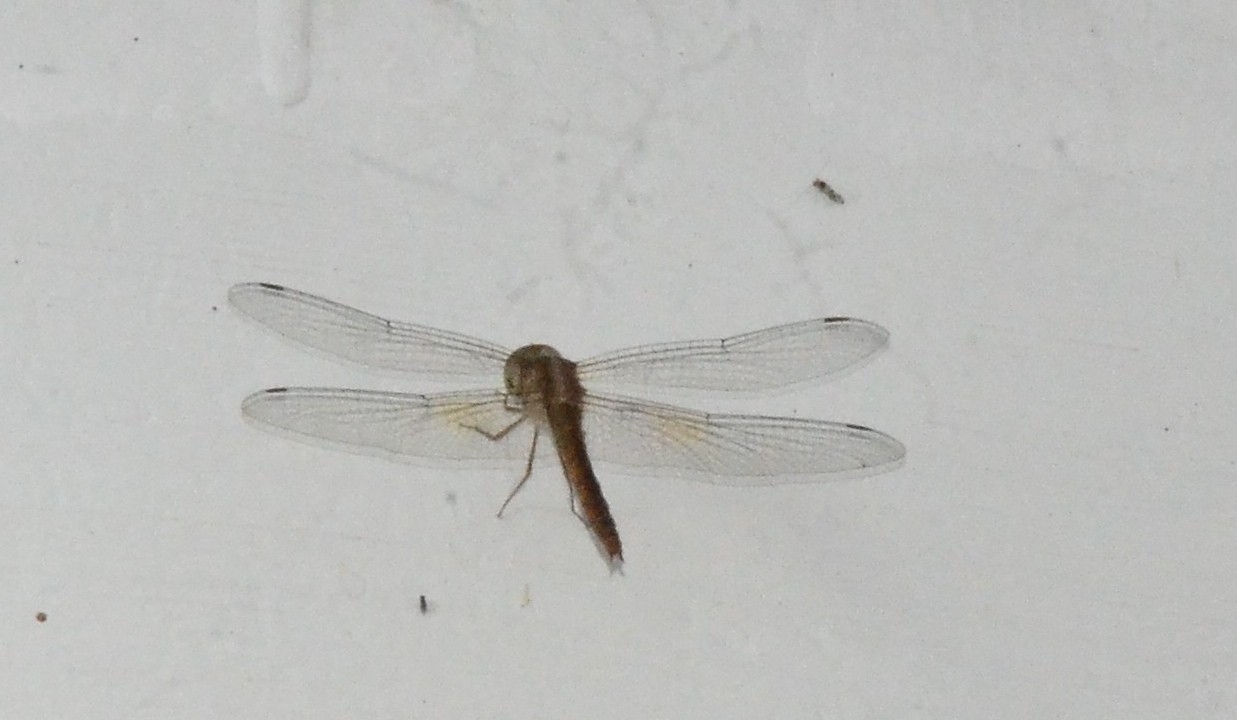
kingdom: Animalia
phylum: Arthropoda
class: Insecta
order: Odonata
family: Libellulidae
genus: Tholymis
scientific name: Tholymis tillarga
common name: Coral-tailed cloud wing
